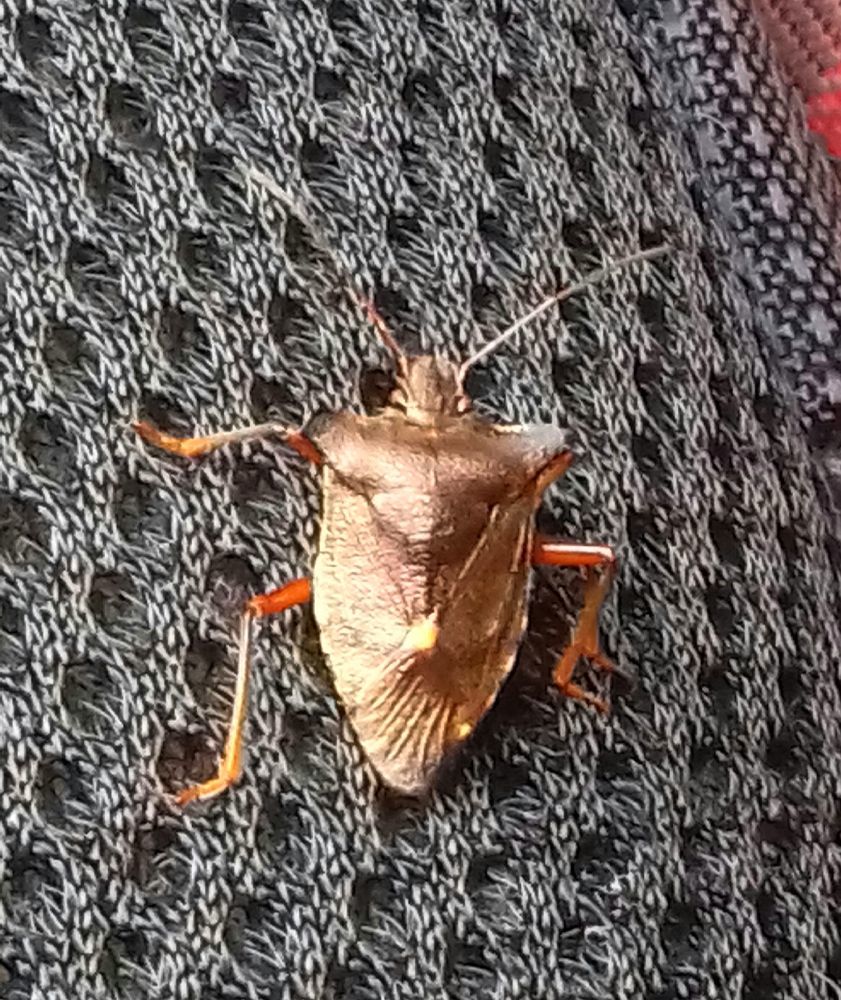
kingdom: Animalia
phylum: Arthropoda
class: Insecta
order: Hemiptera
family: Pentatomidae
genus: Pentatoma
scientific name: Pentatoma rufipes
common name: Forest bug
